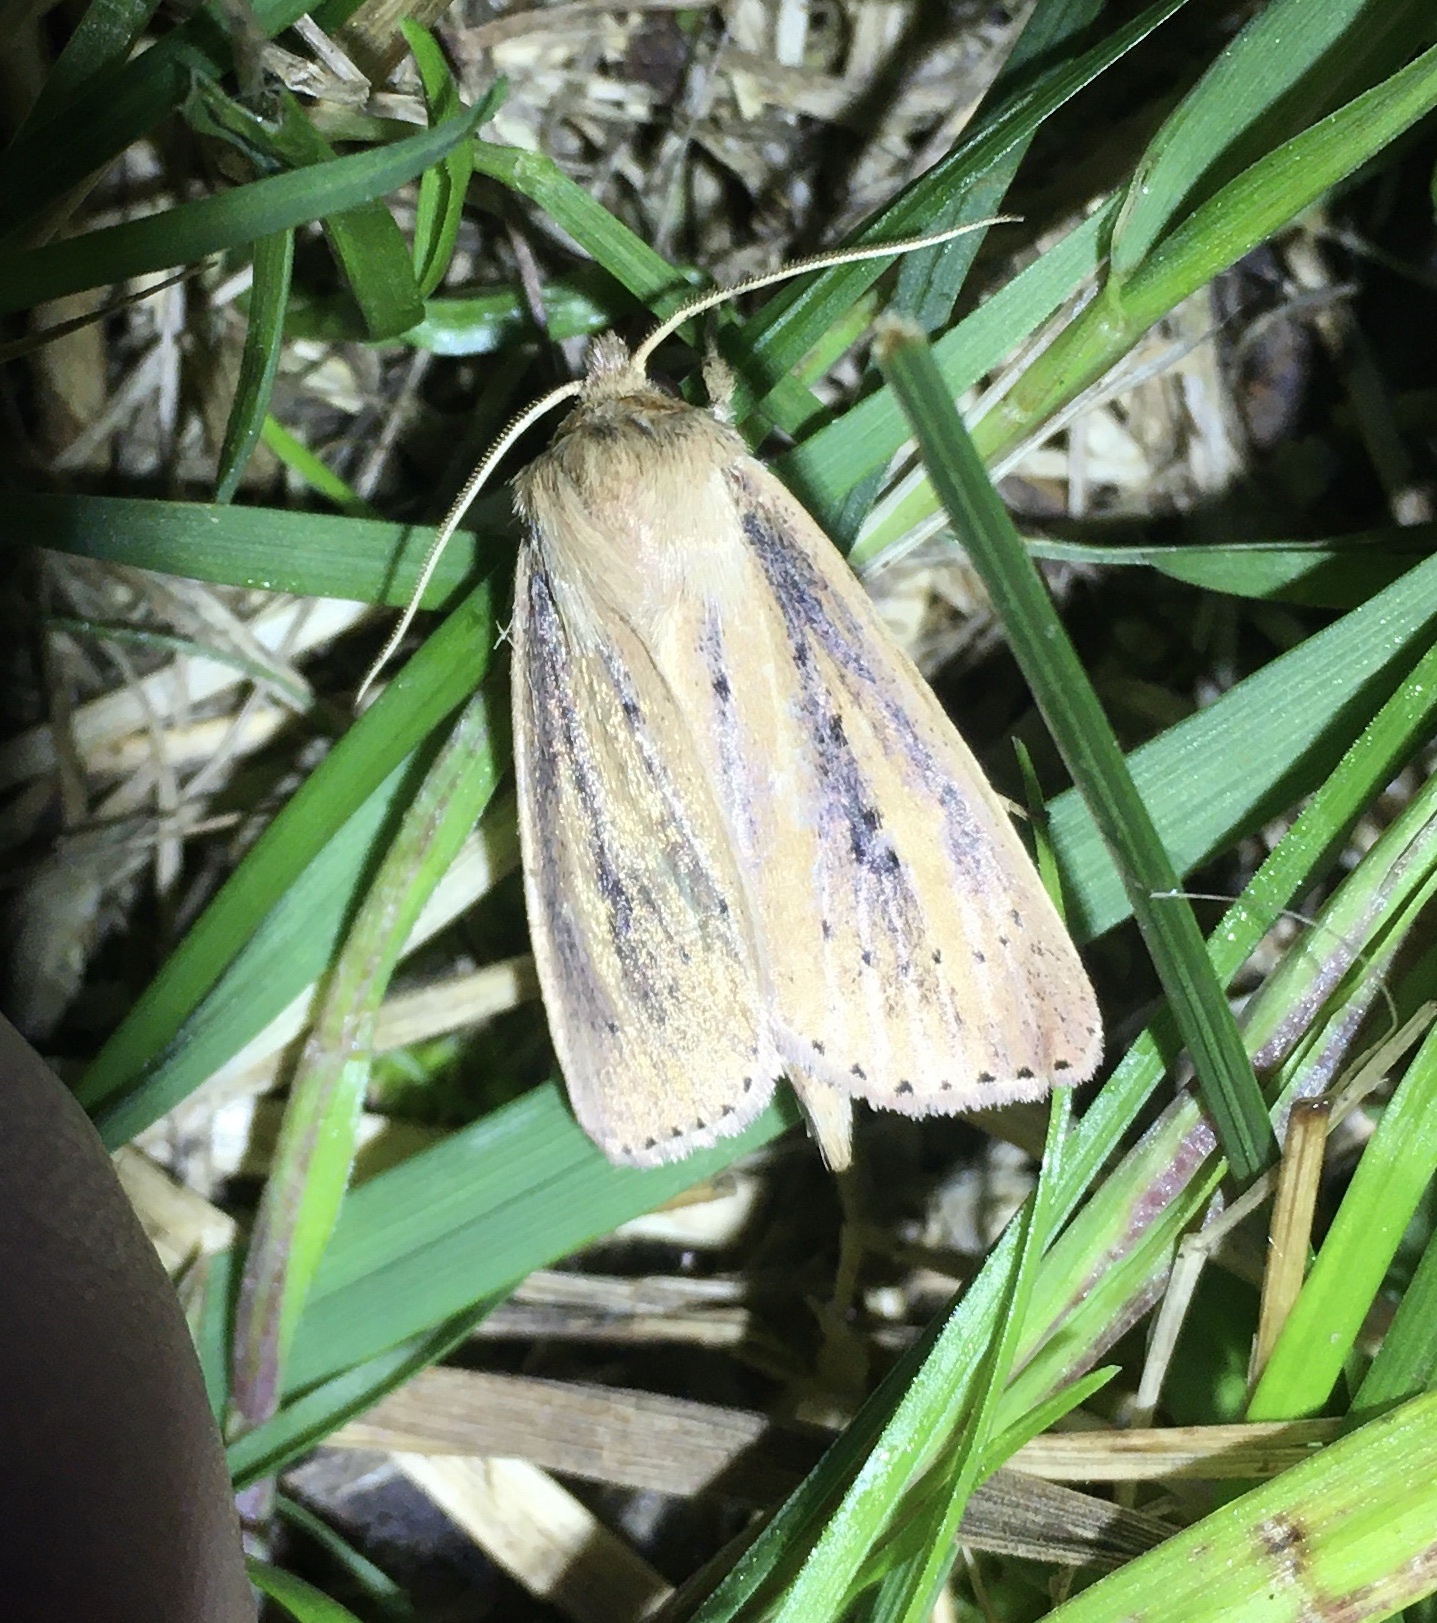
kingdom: Animalia
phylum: Arthropoda
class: Insecta
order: Lepidoptera
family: Noctuidae
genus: Globia
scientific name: Globia sparganii
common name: Webb's wainscot
